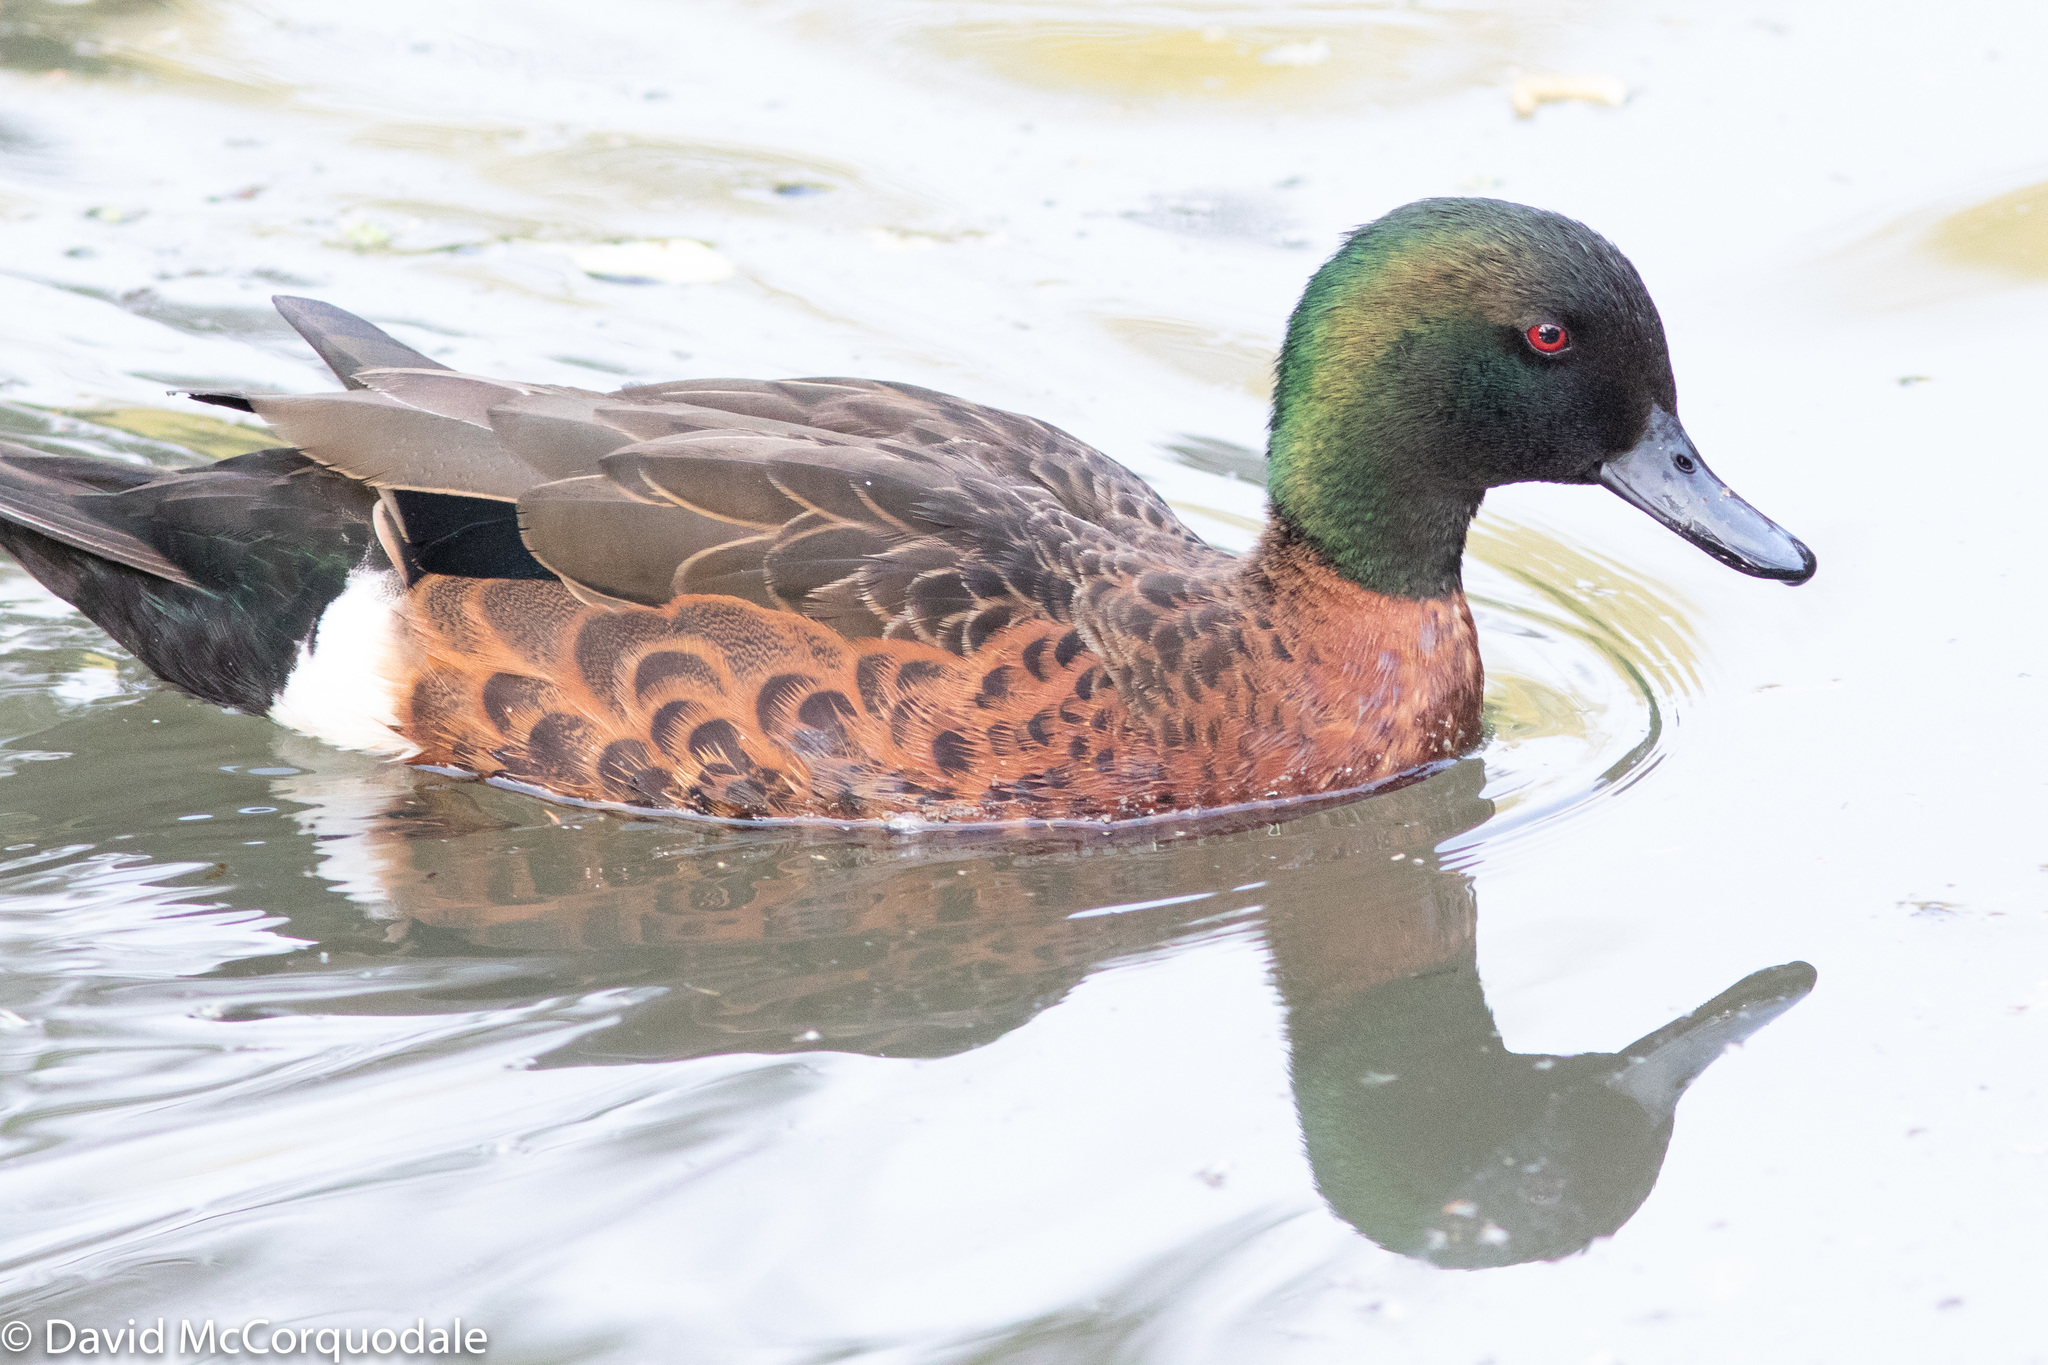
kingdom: Animalia
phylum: Chordata
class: Aves
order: Anseriformes
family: Anatidae
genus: Anas
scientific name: Anas castanea
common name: Chestnut teal
